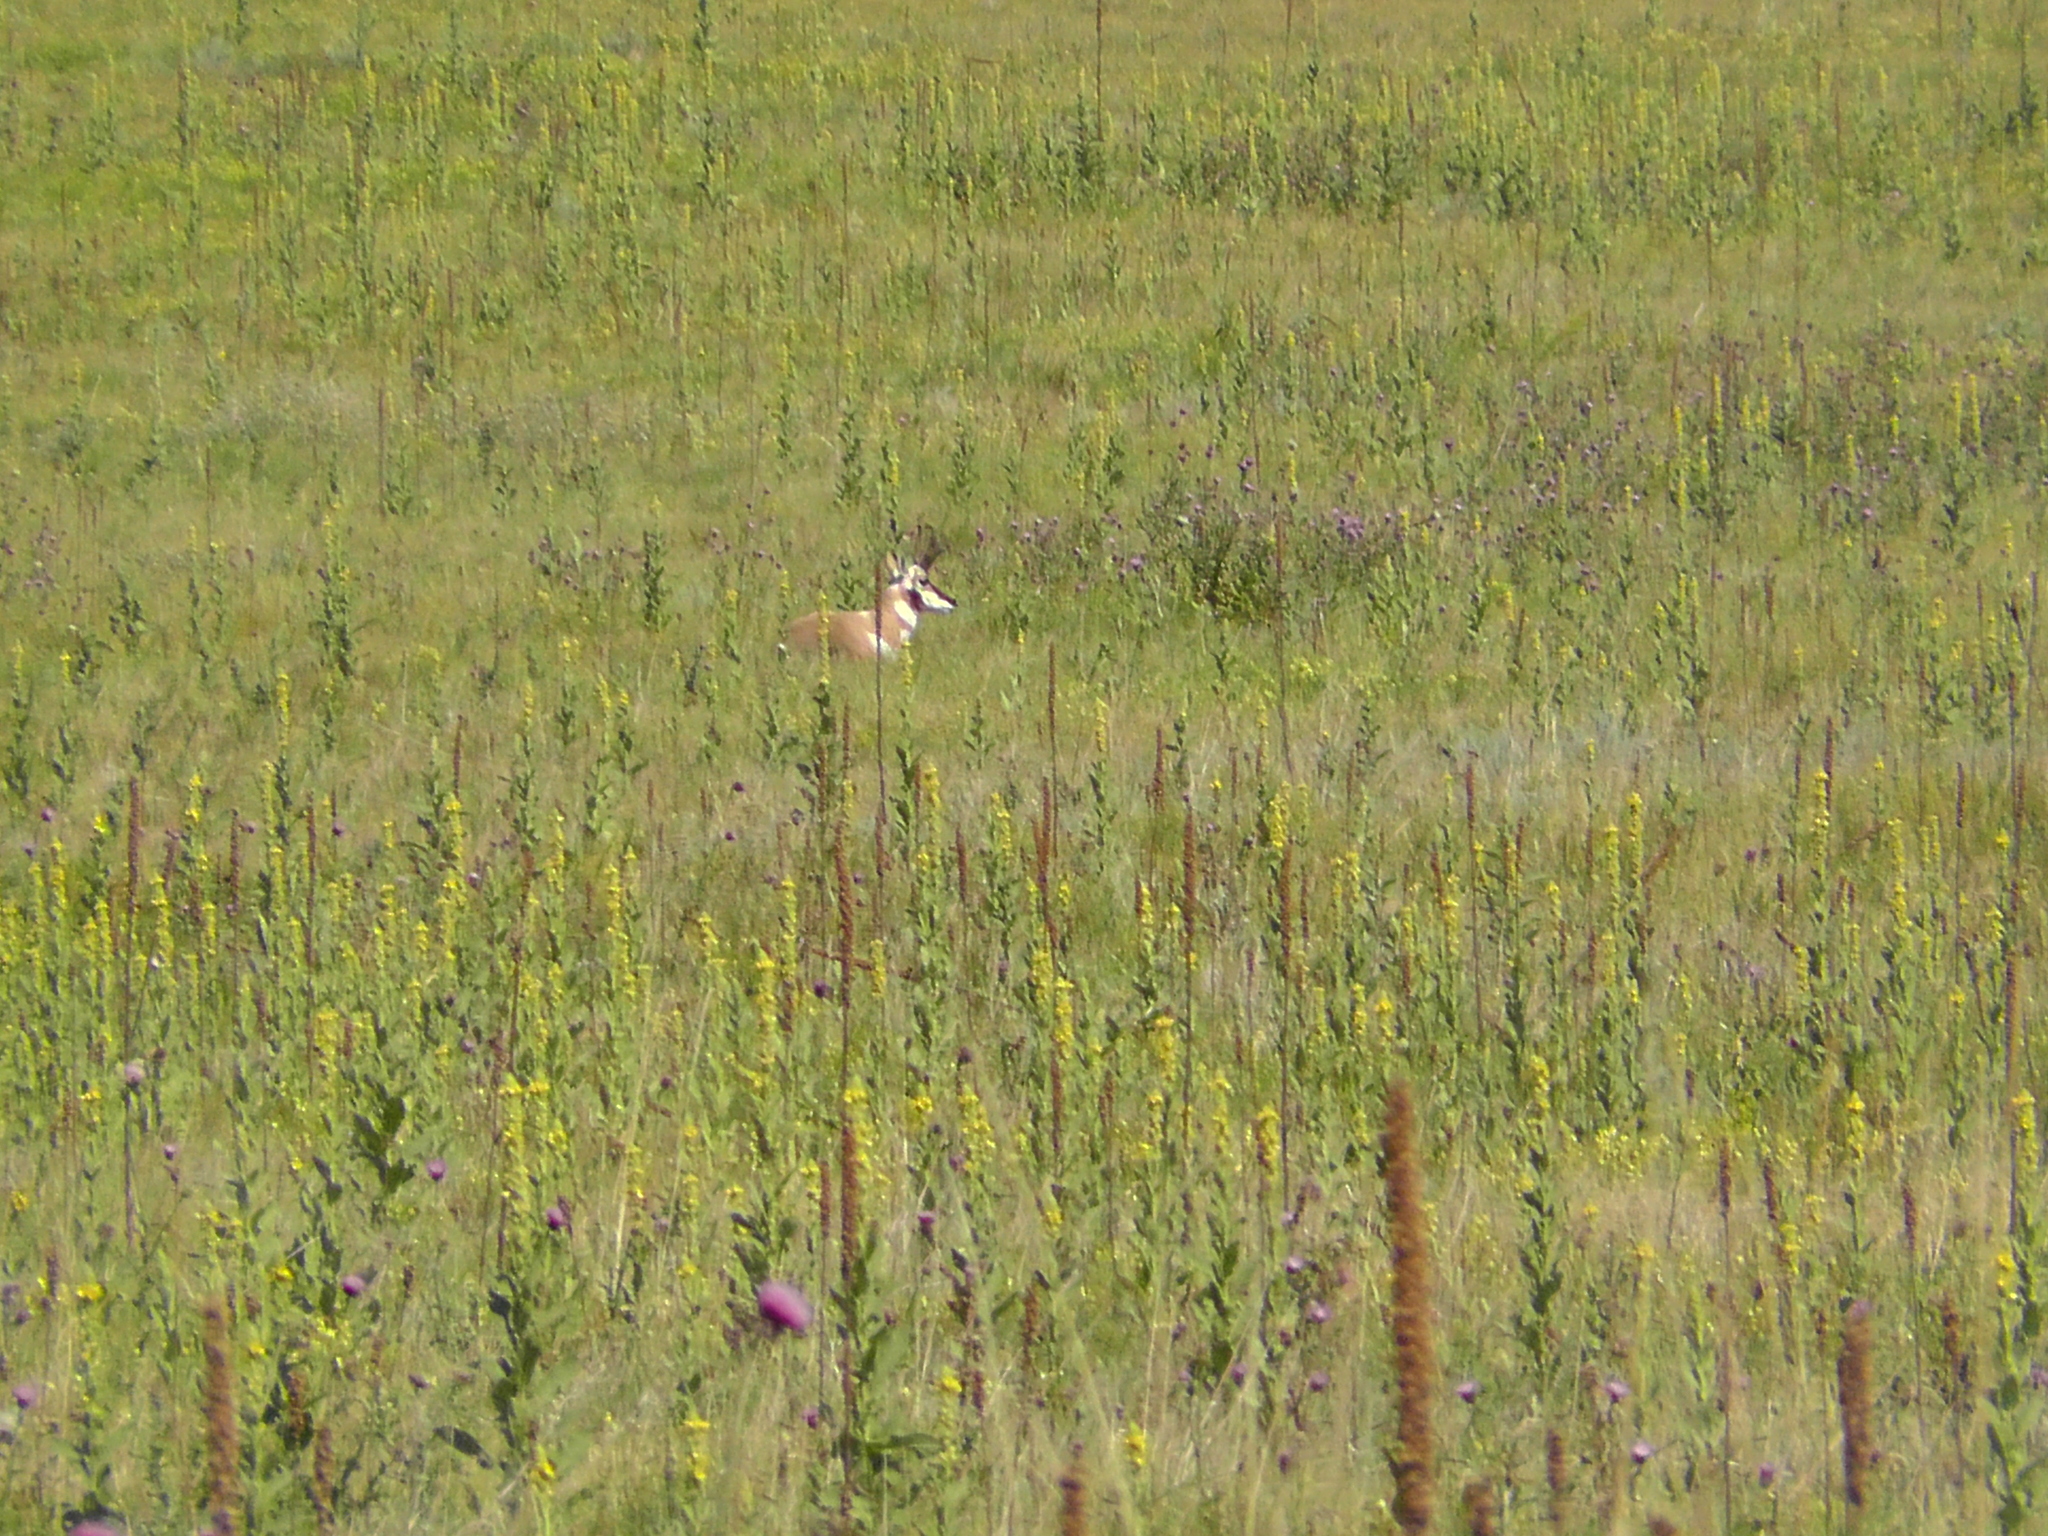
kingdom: Animalia
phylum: Chordata
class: Mammalia
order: Artiodactyla
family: Antilocapridae
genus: Antilocapra
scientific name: Antilocapra americana
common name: Pronghorn
